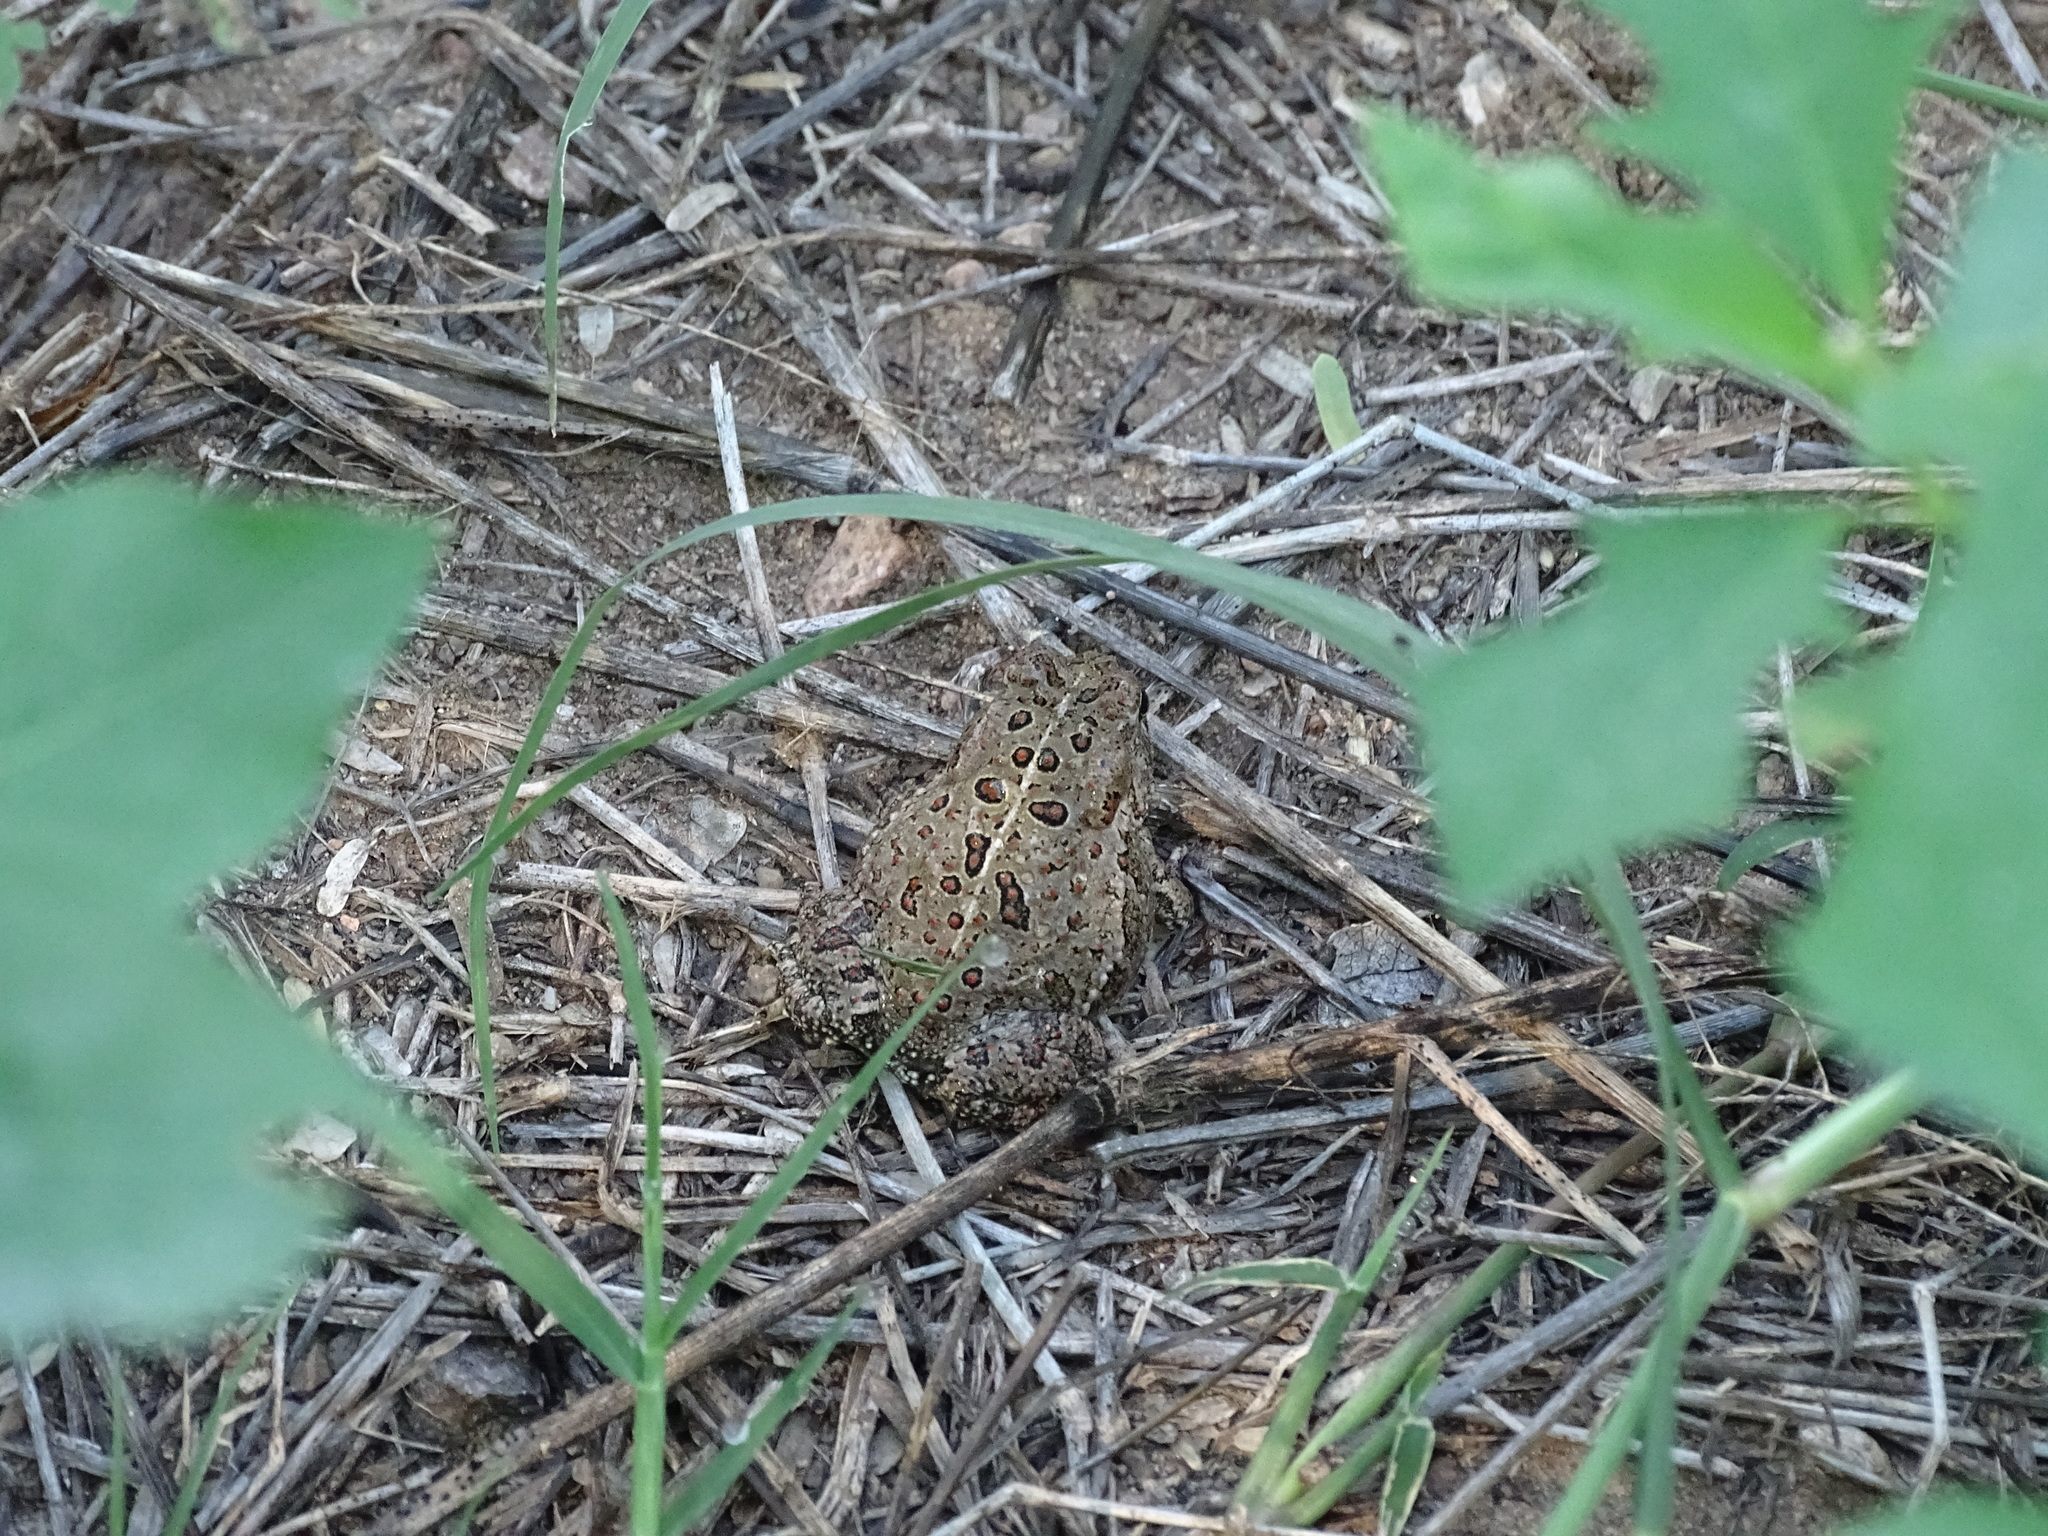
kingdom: Animalia
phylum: Chordata
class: Amphibia
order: Anura
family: Bufonidae
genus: Anaxyrus
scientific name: Anaxyrus woodhousii
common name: Woodhouse's toad
